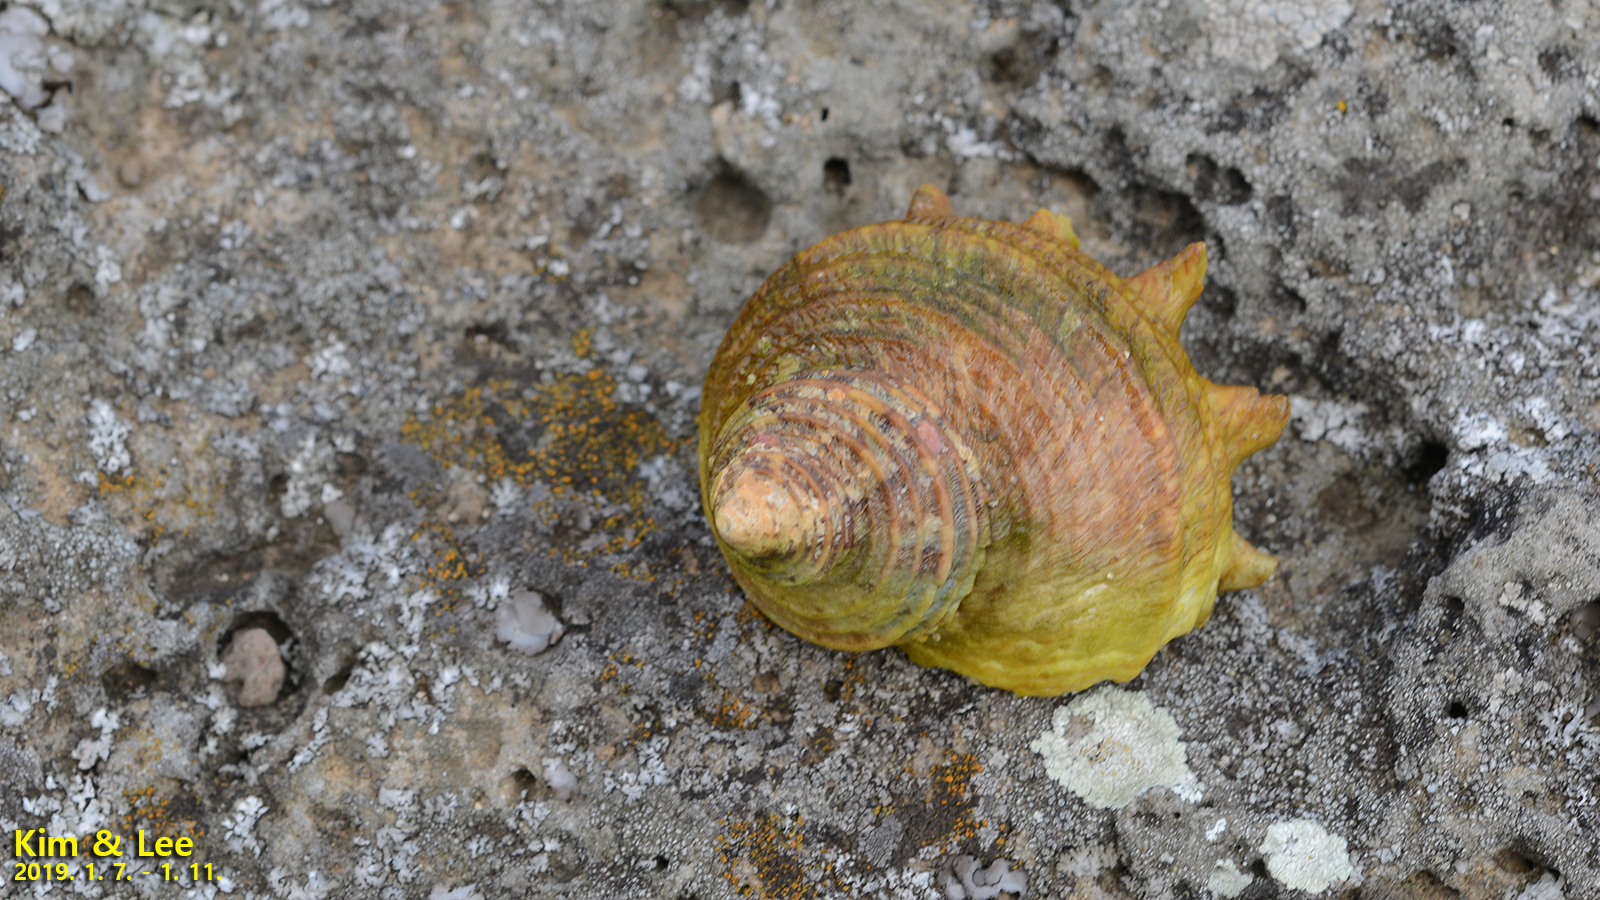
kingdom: Animalia
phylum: Mollusca
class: Gastropoda
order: Trochida
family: Turbinidae
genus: Turbo
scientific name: Turbo sazae
